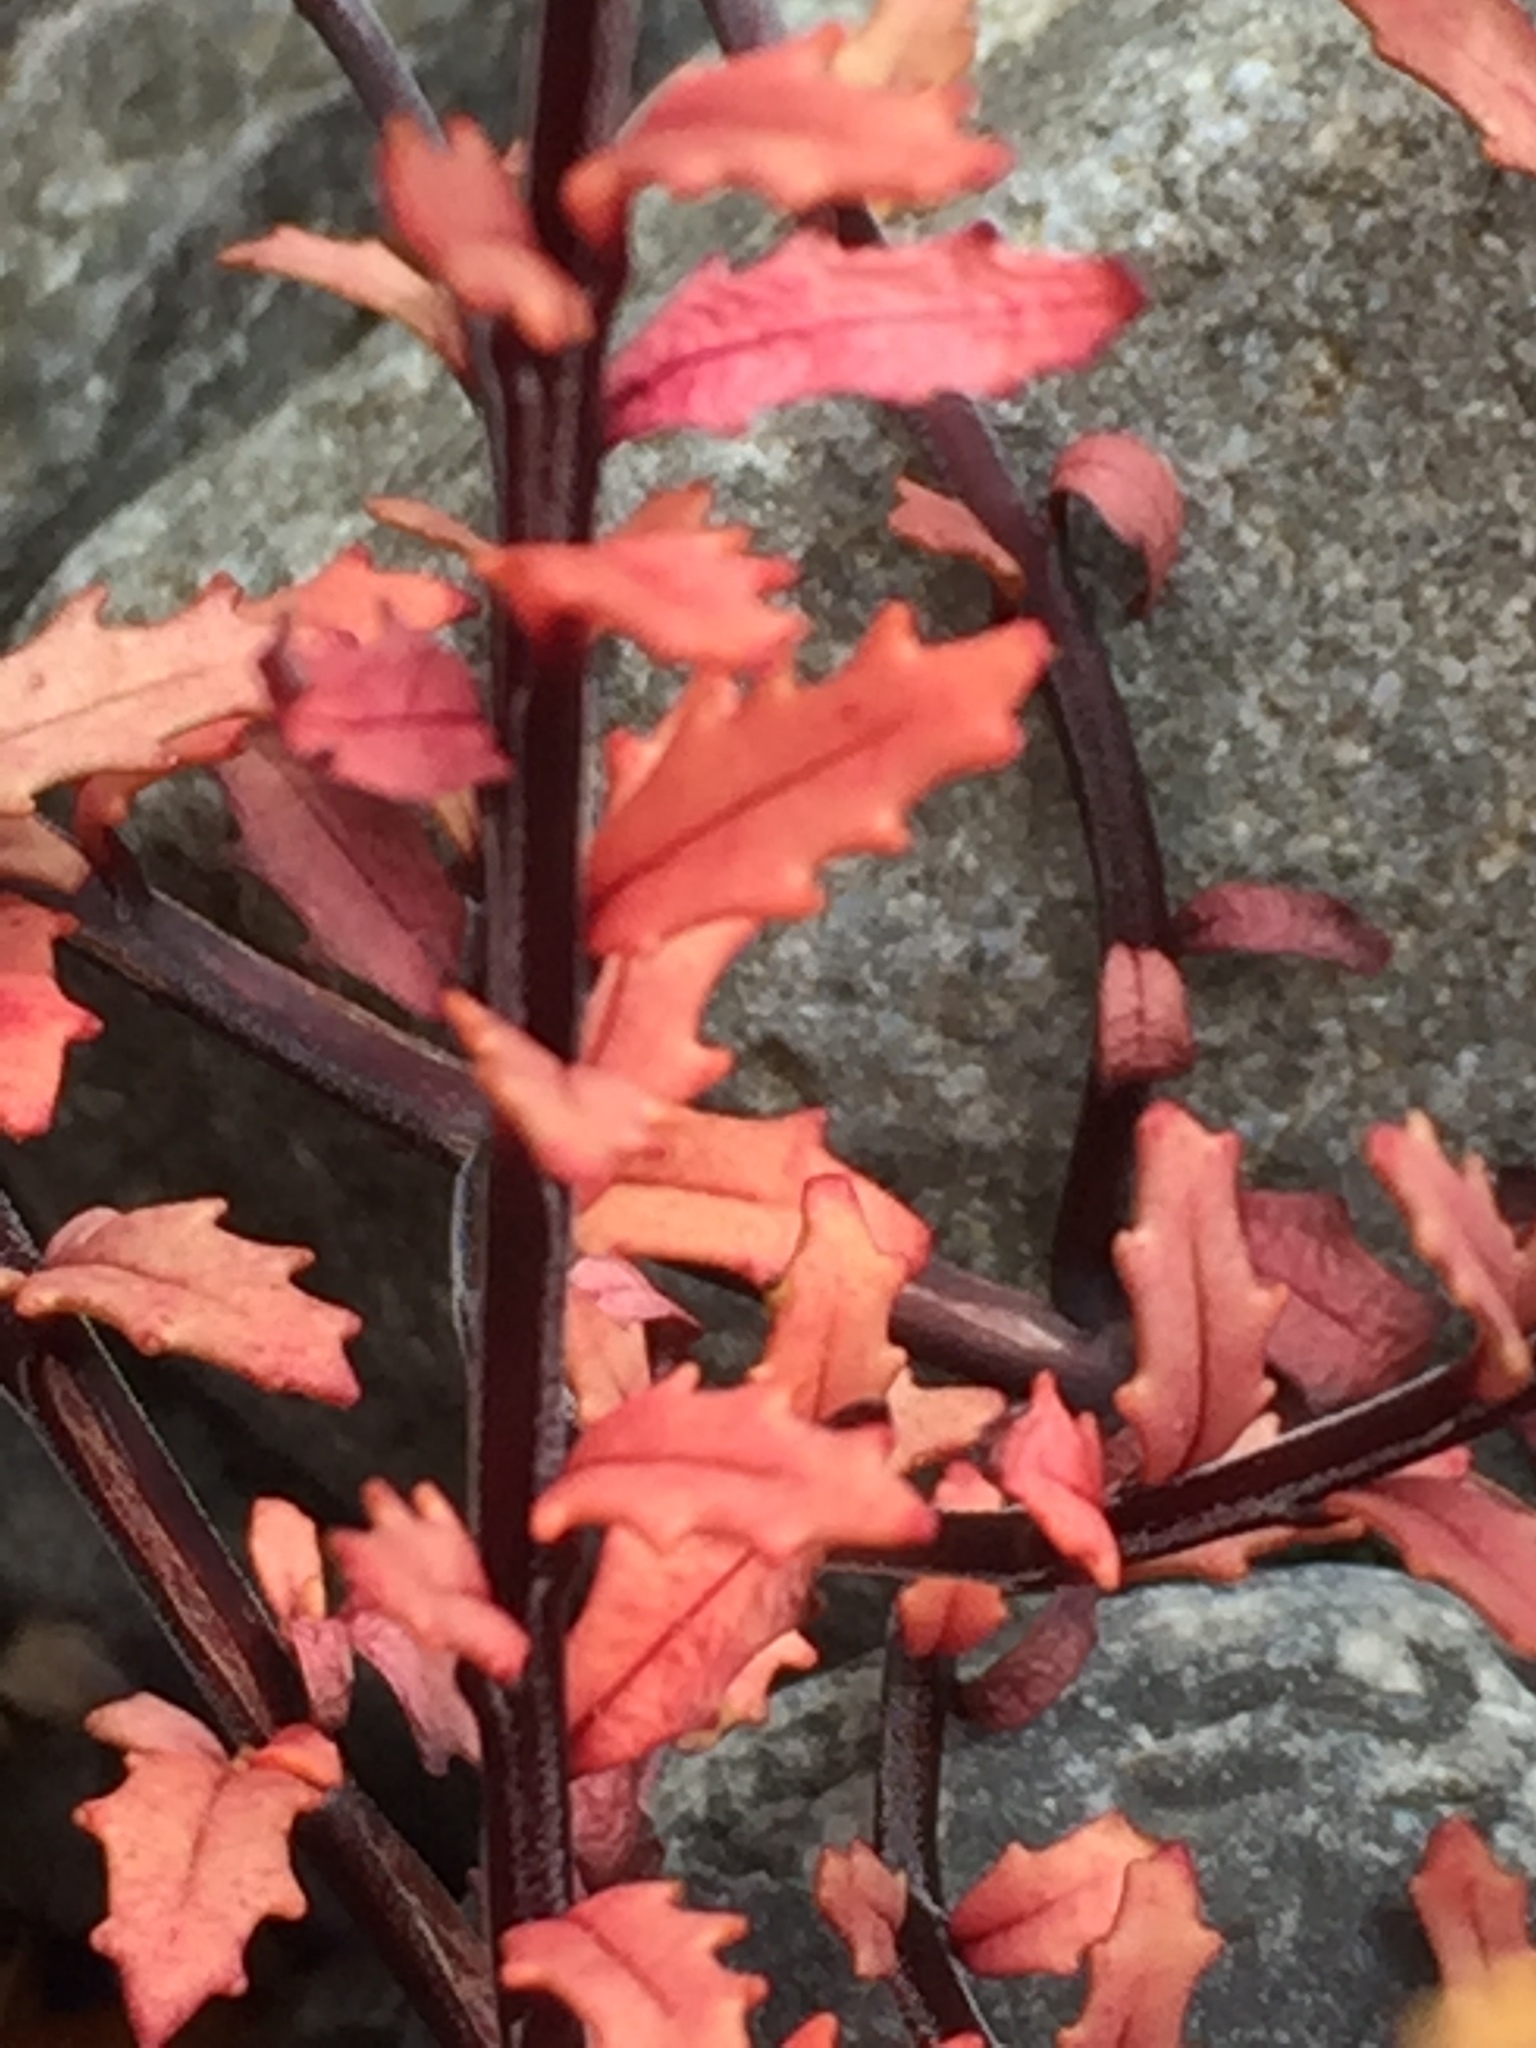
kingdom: Plantae
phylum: Tracheophyta
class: Magnoliopsida
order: Myrtales
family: Onagraceae
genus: Epilobium
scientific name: Epilobium melanocaulon
